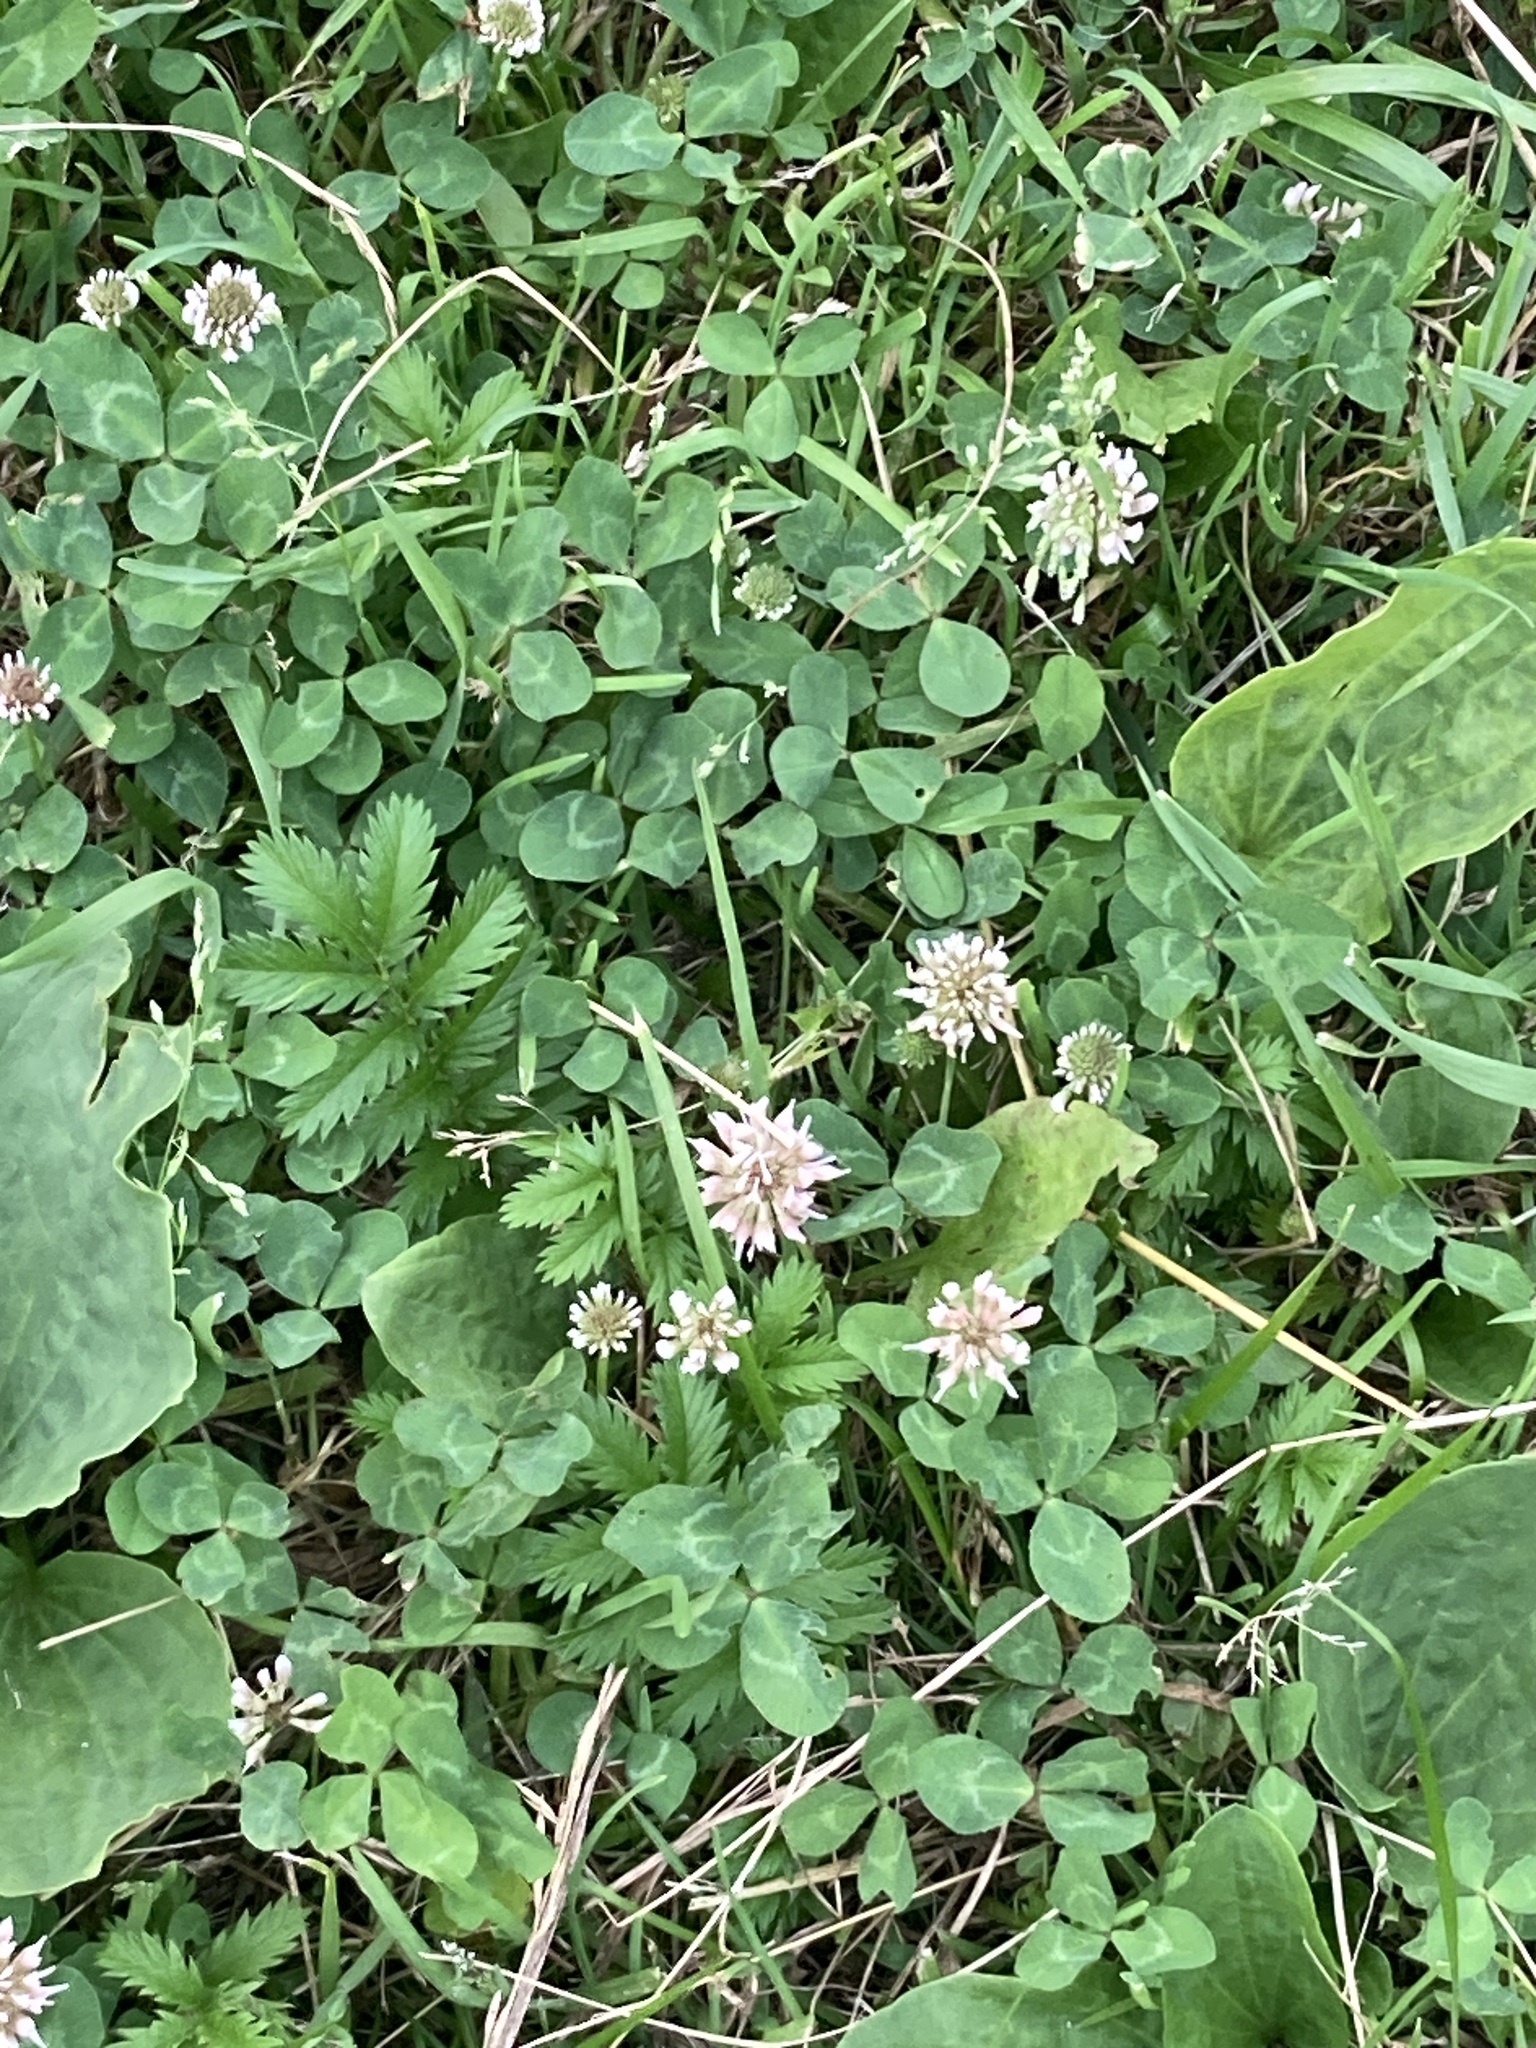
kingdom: Plantae
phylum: Tracheophyta
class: Magnoliopsida
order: Fabales
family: Fabaceae
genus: Trifolium
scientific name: Trifolium repens
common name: White clover
